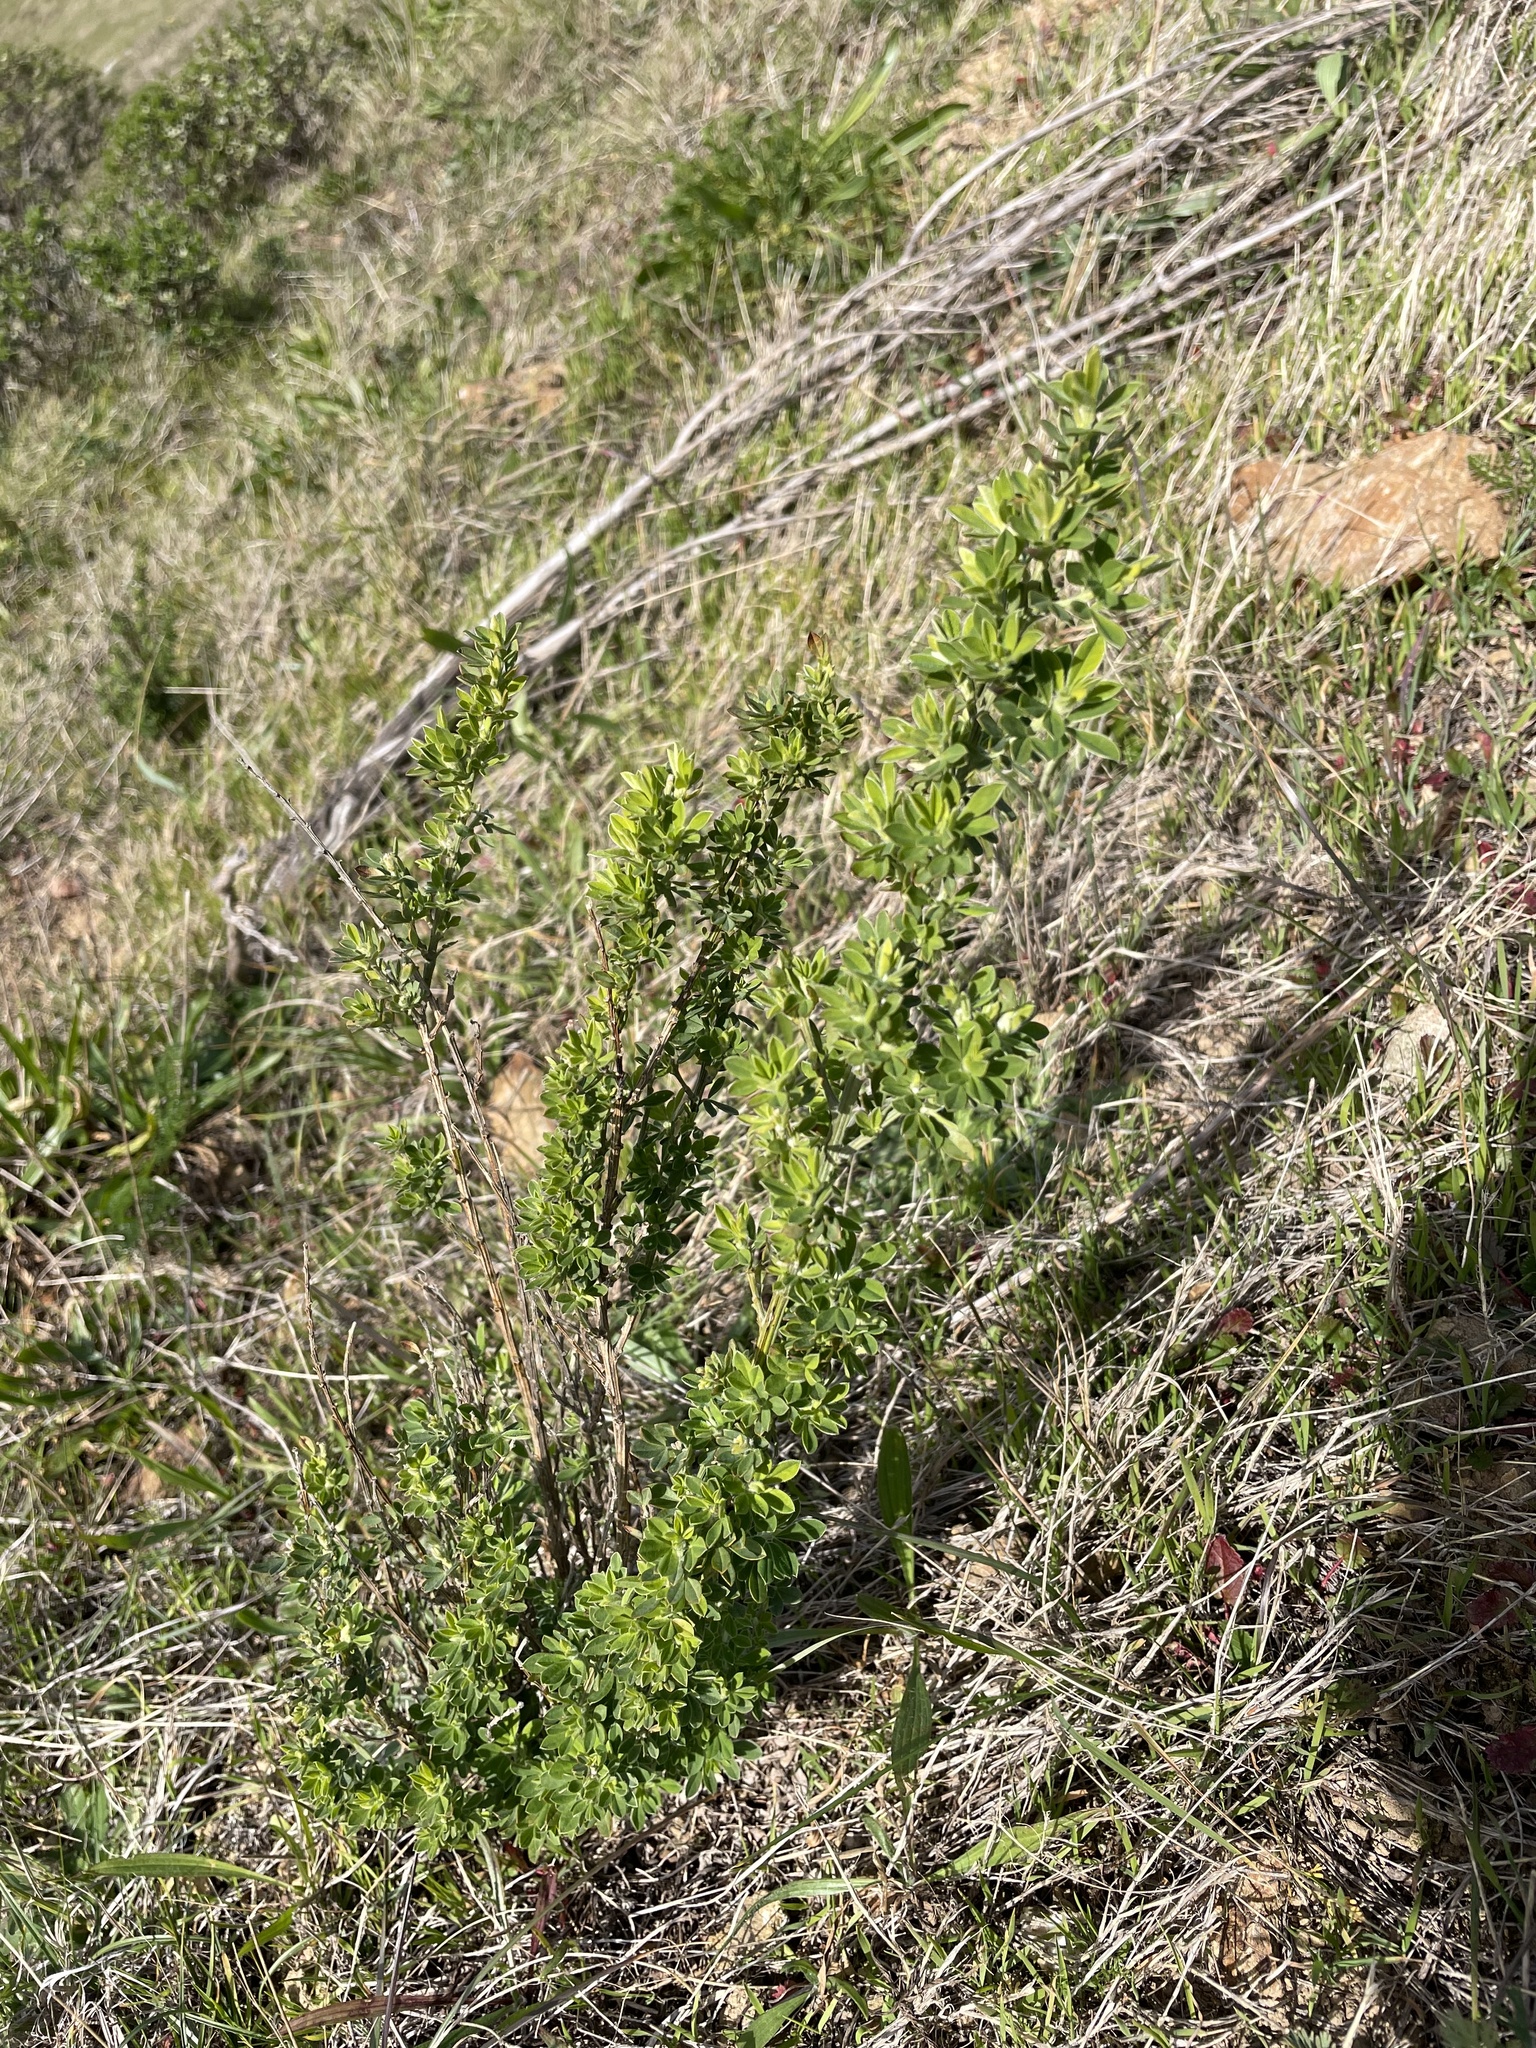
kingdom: Plantae
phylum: Tracheophyta
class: Magnoliopsida
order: Fabales
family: Fabaceae
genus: Genista
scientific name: Genista monspessulana
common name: Montpellier broom
